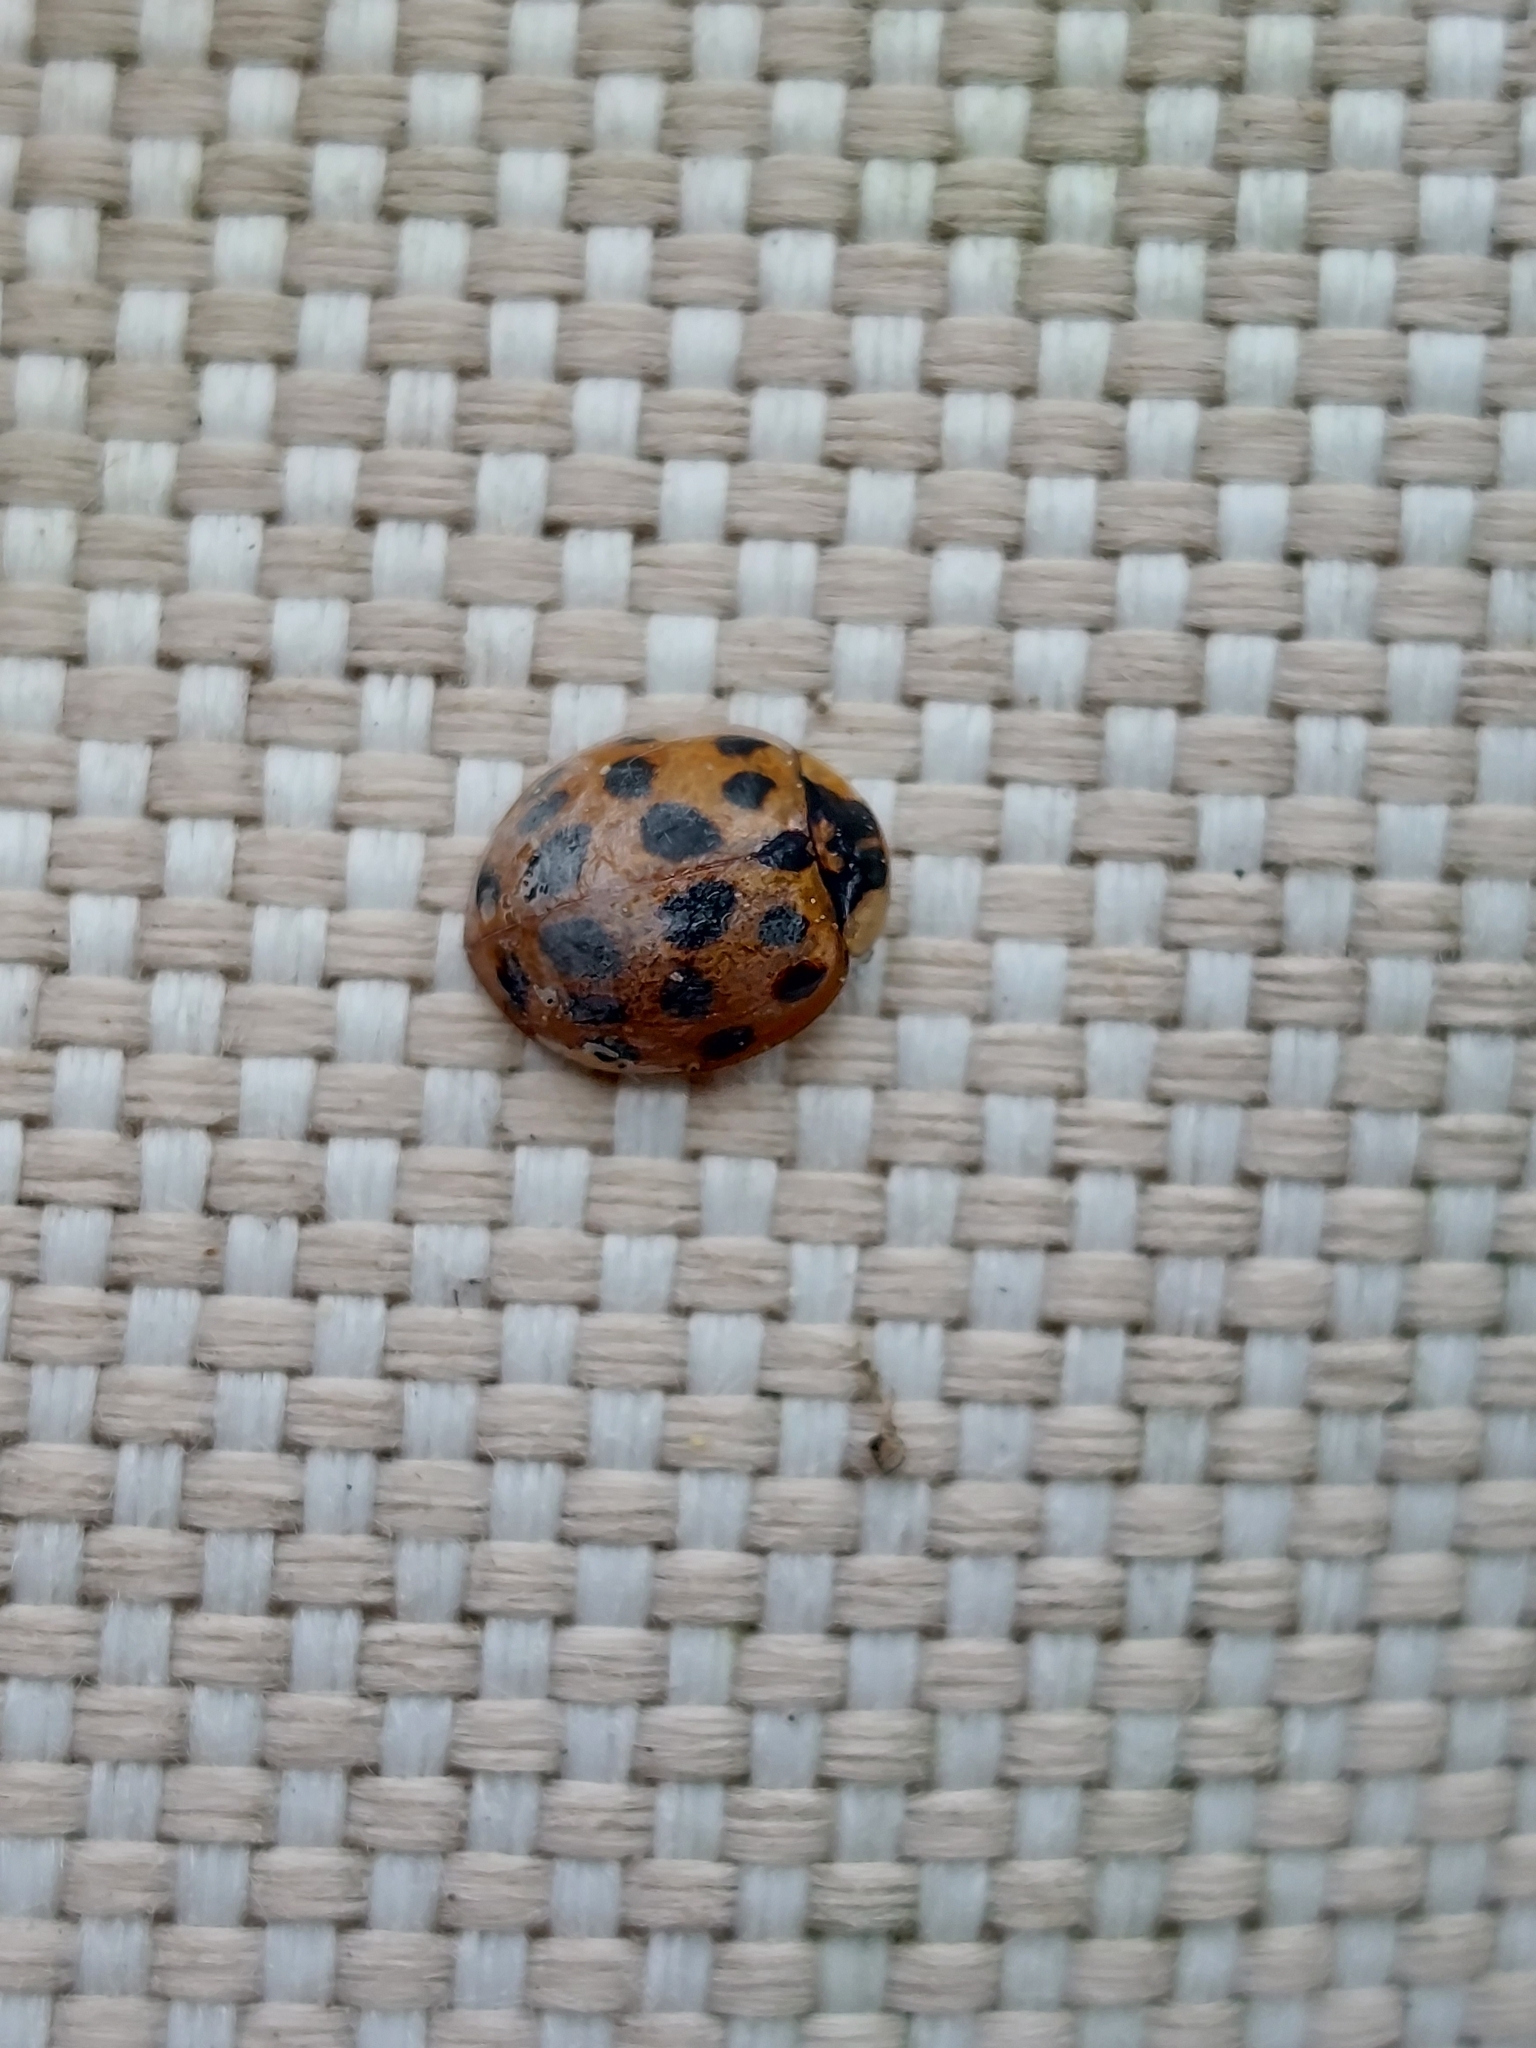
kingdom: Animalia
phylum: Arthropoda
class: Insecta
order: Coleoptera
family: Coccinellidae
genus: Harmonia
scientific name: Harmonia axyridis
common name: Harlequin ladybird
